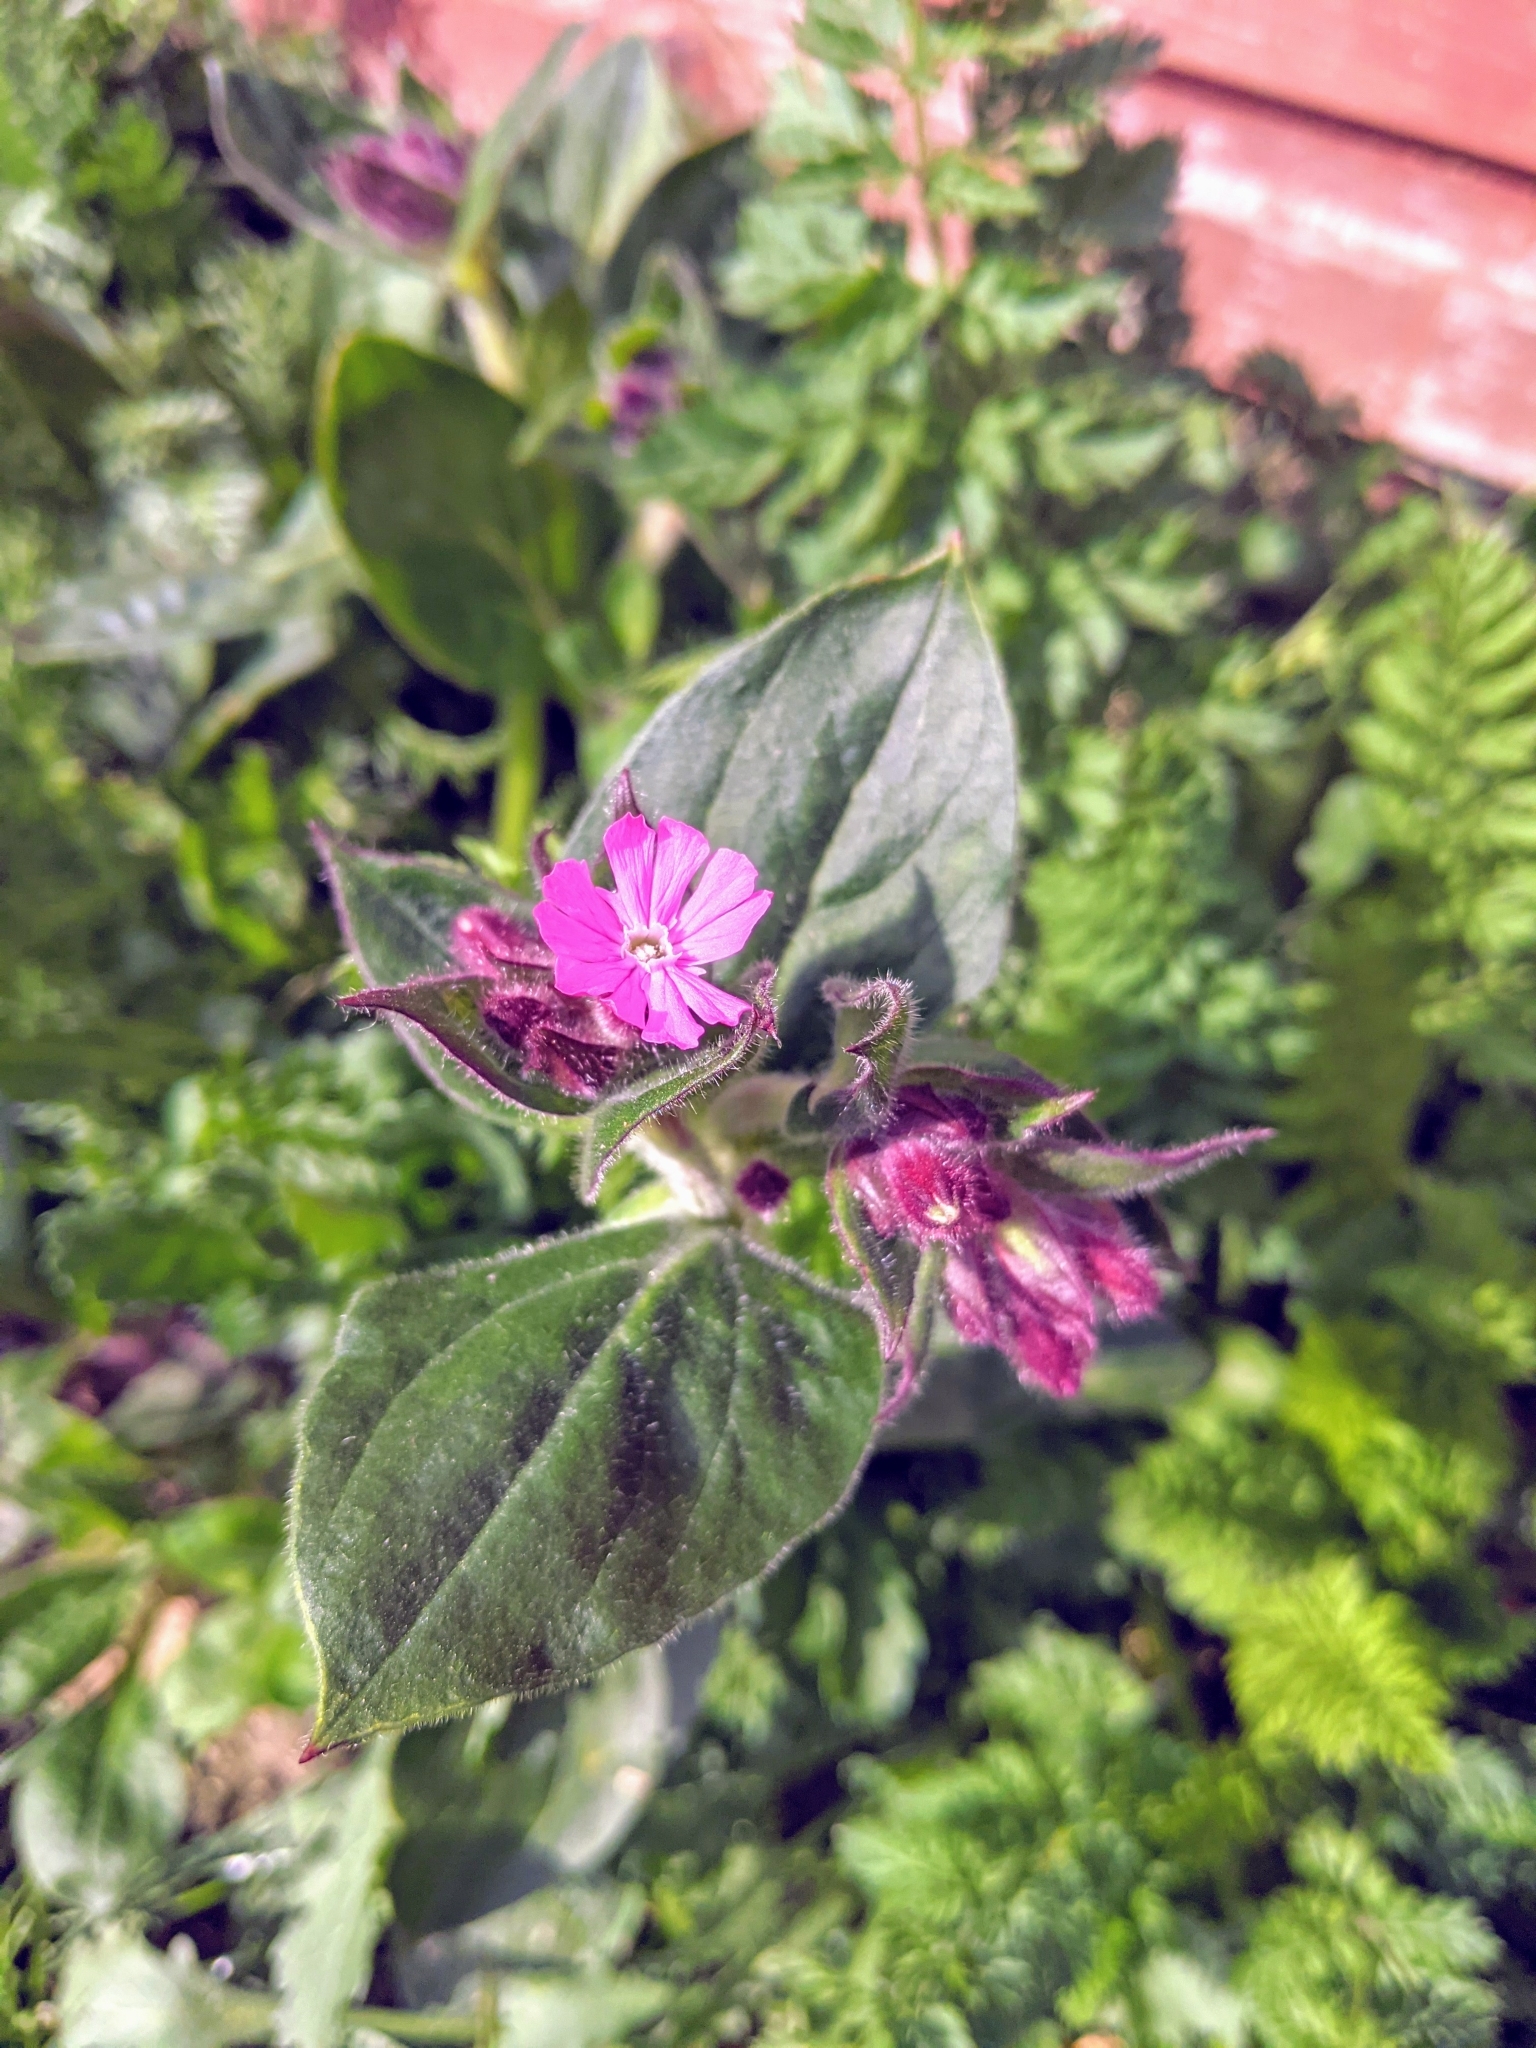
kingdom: Plantae
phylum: Tracheophyta
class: Magnoliopsida
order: Caryophyllales
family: Caryophyllaceae
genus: Silene
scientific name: Silene dioica
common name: Red campion
